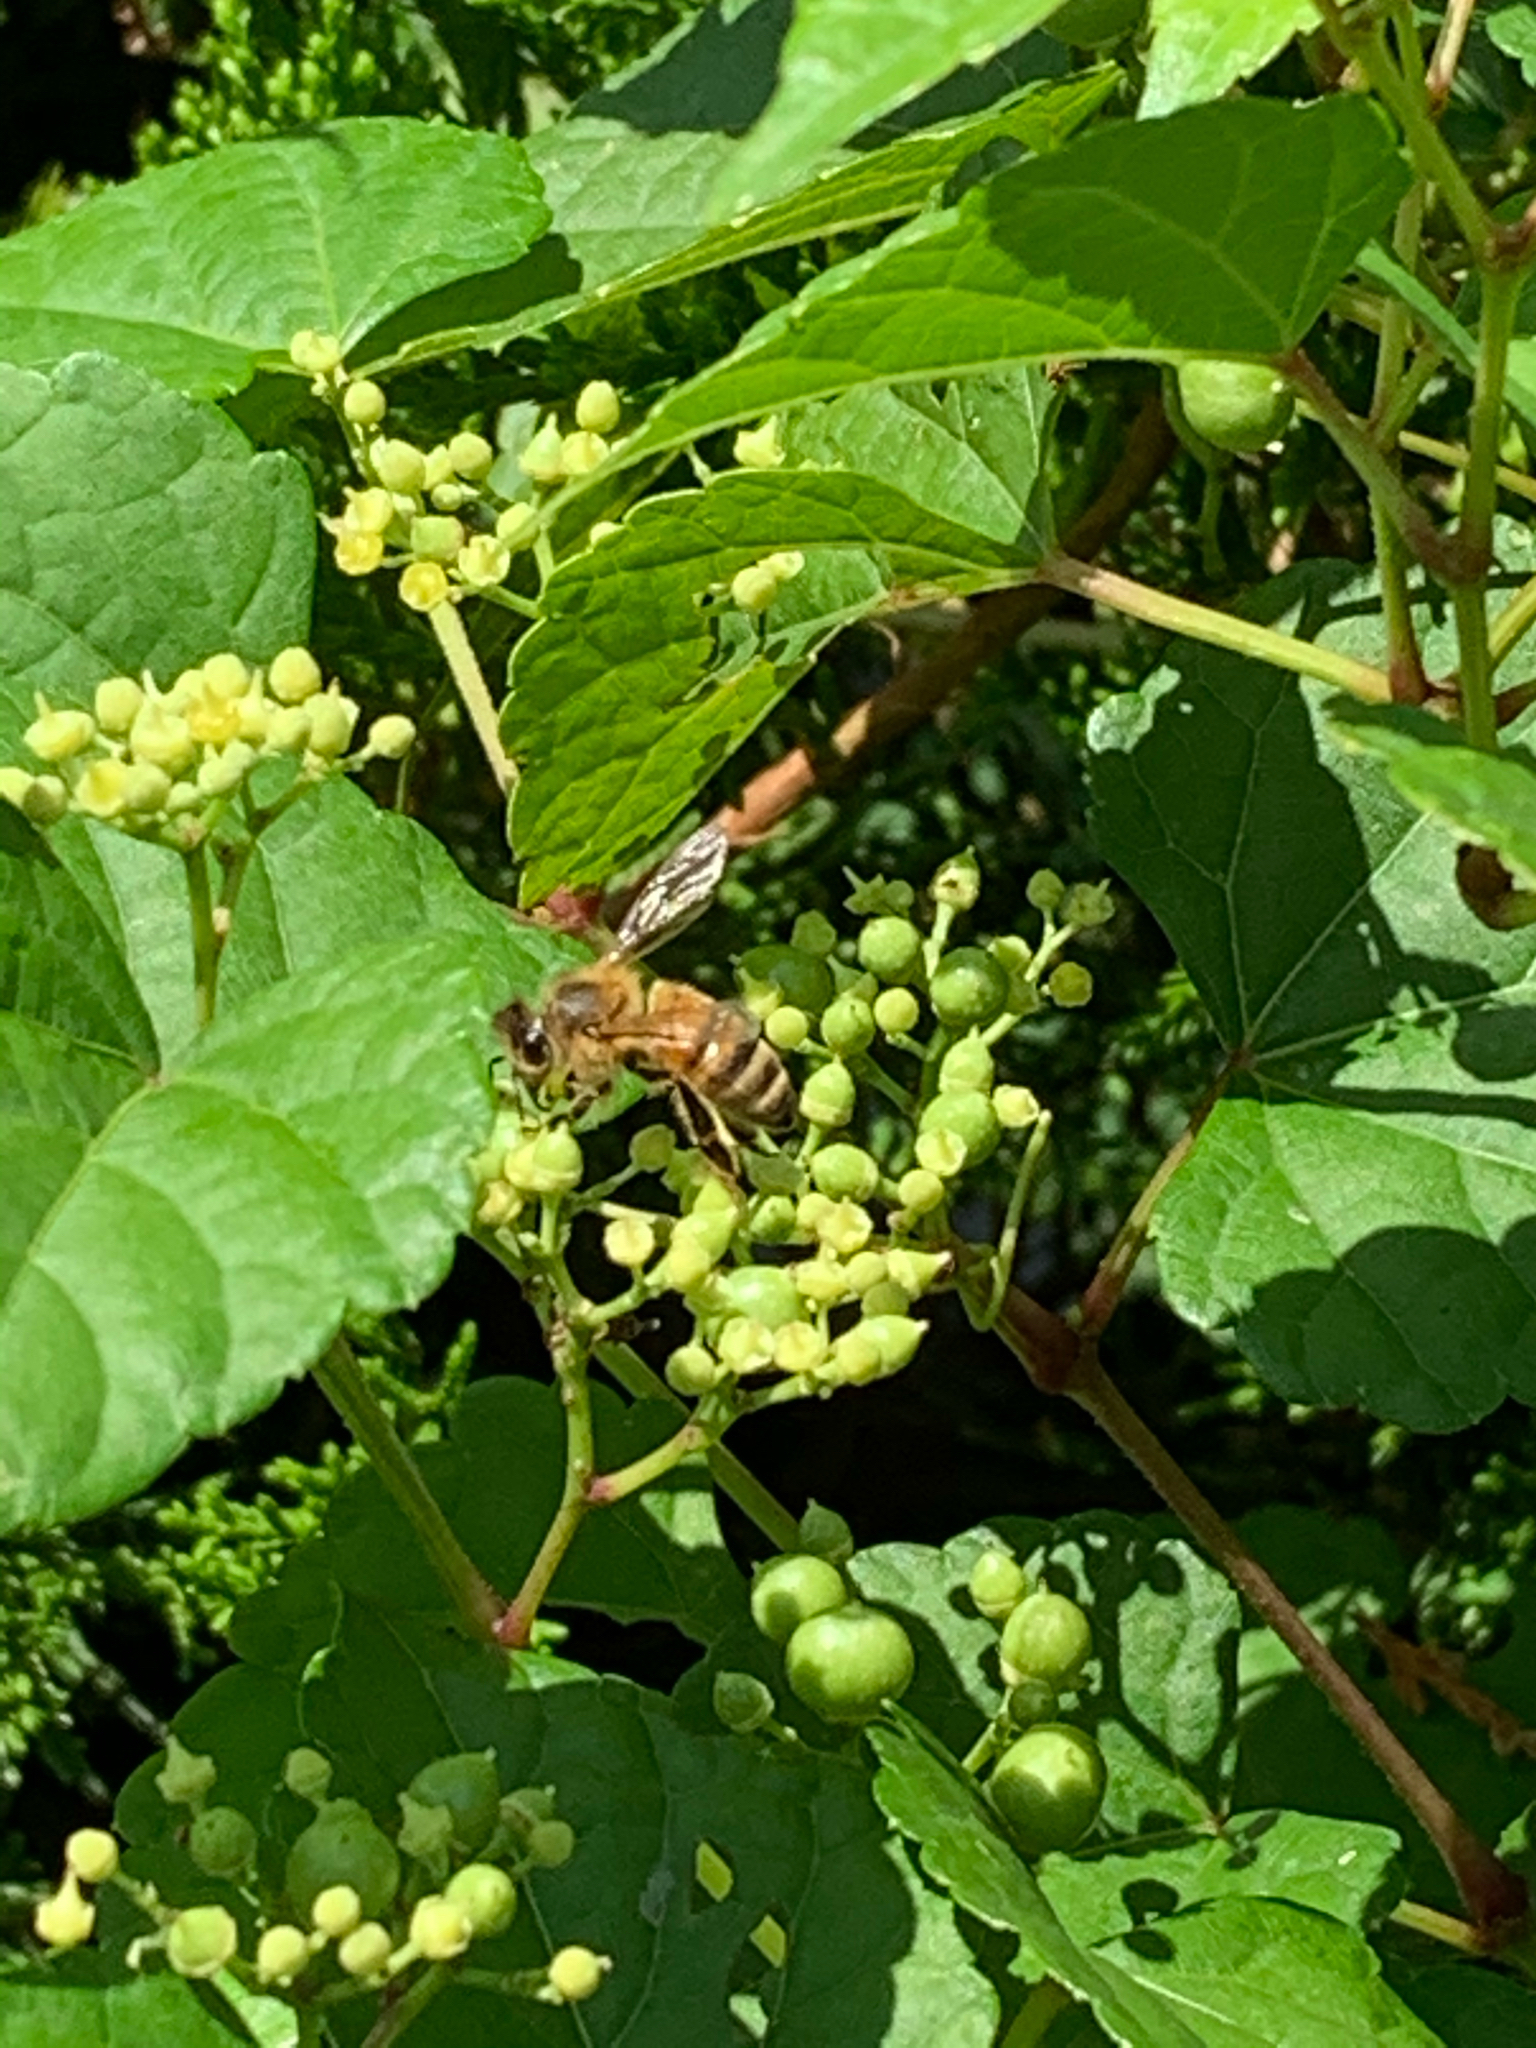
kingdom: Animalia
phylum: Arthropoda
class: Insecta
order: Hymenoptera
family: Apidae
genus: Apis
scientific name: Apis mellifera
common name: Honey bee
